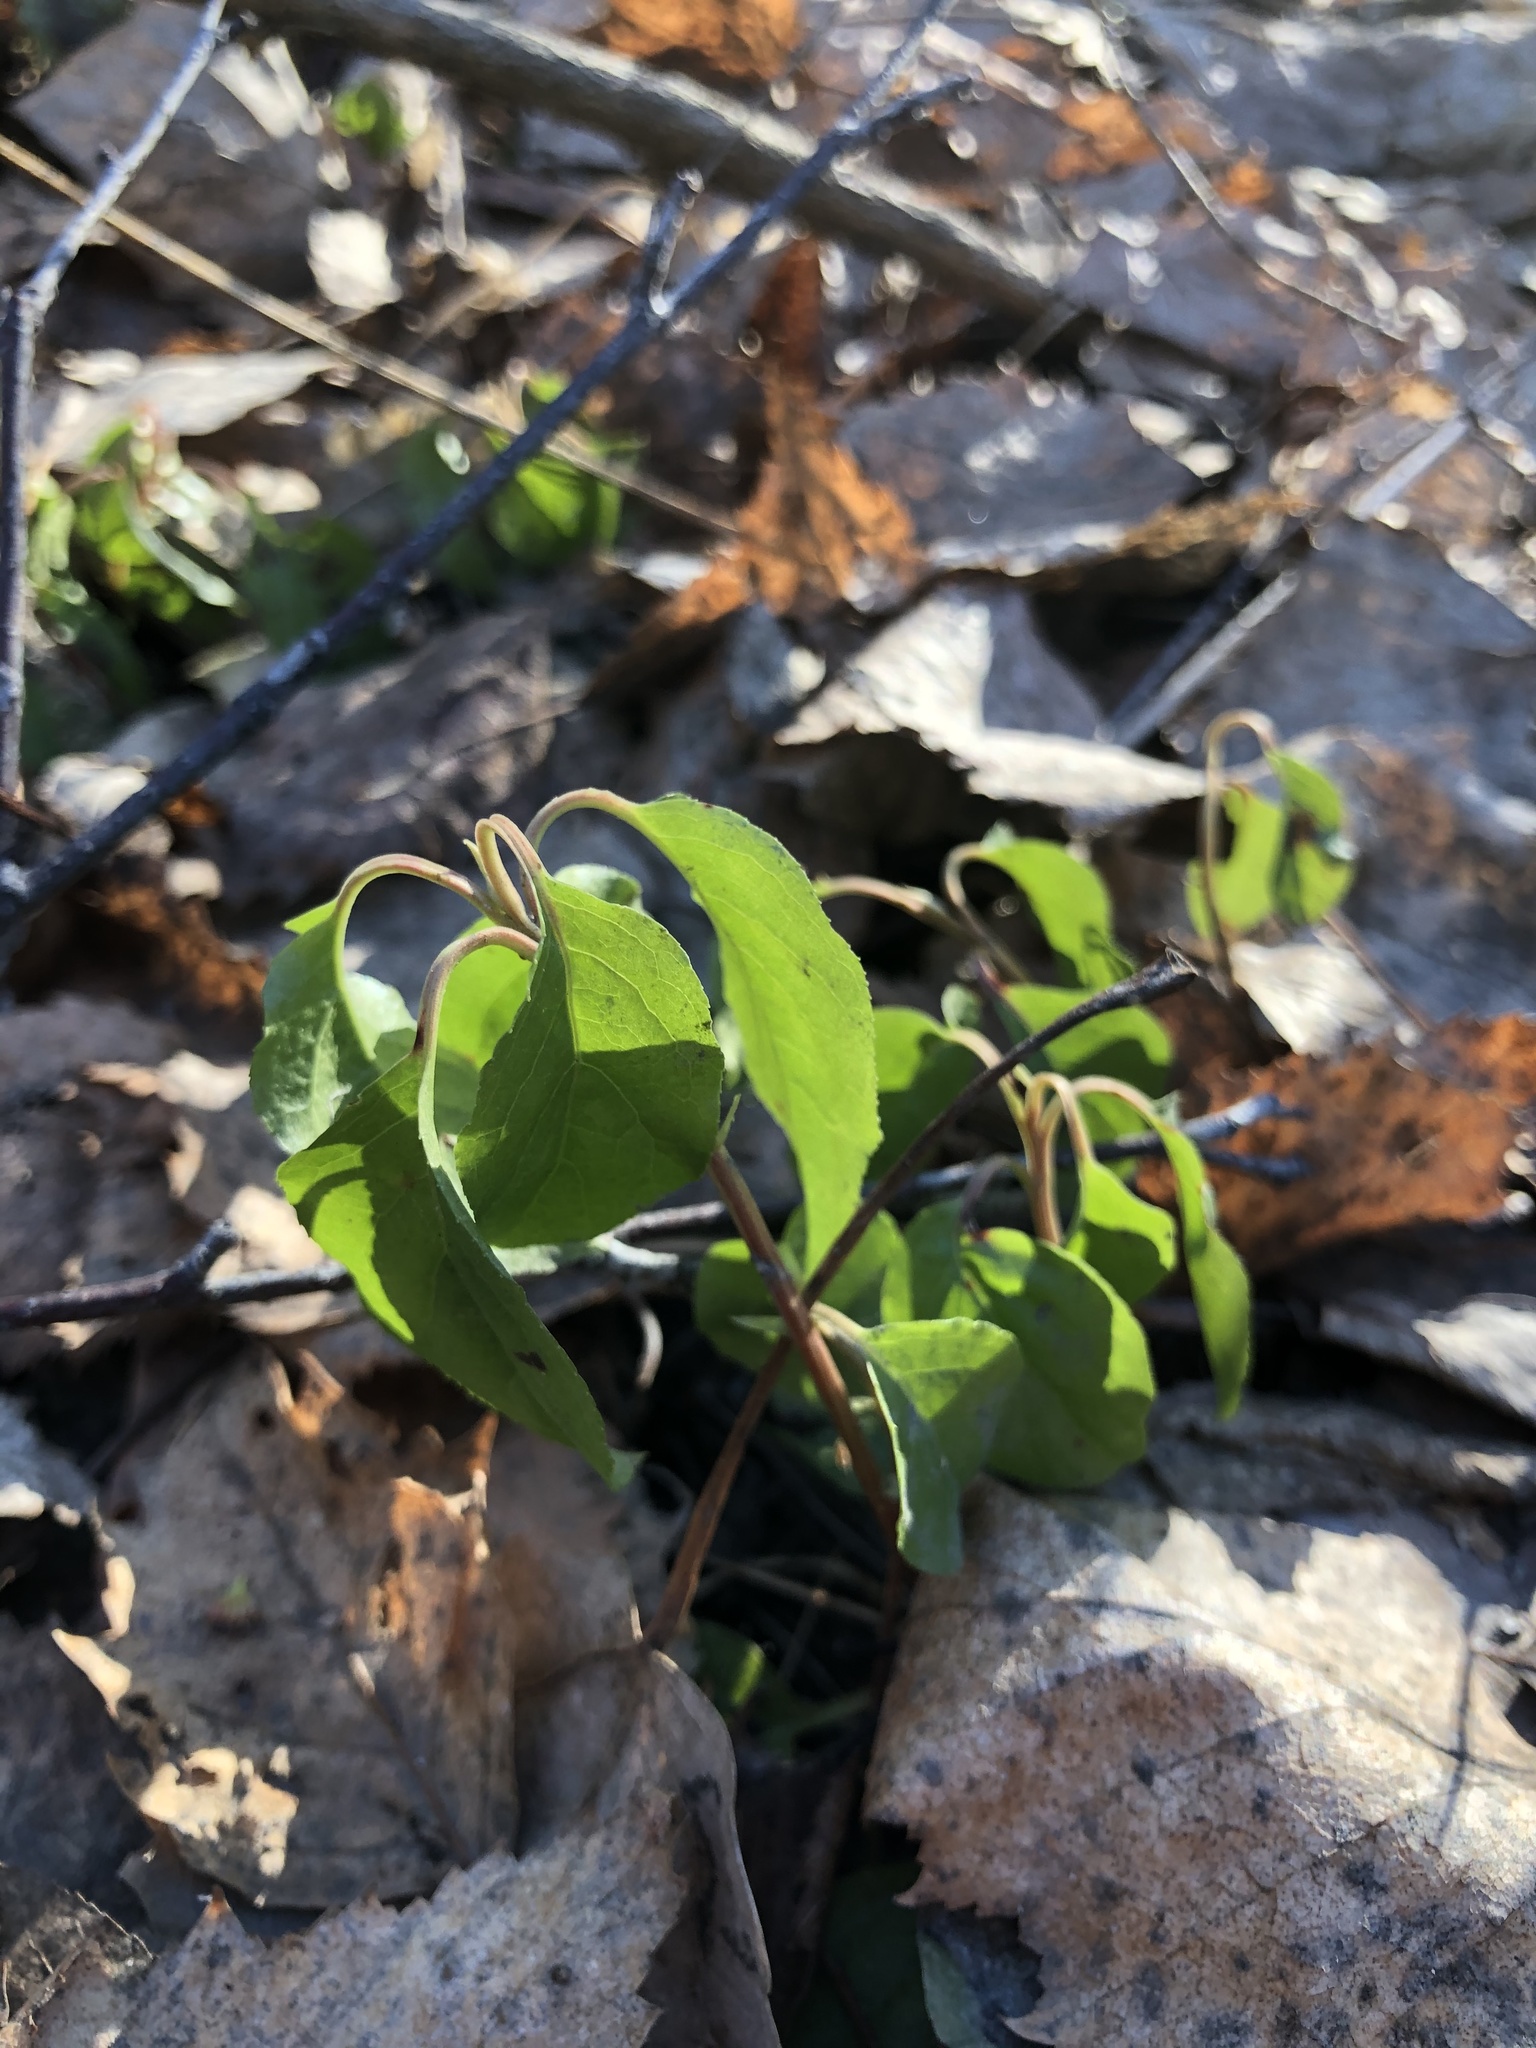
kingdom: Plantae
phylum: Tracheophyta
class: Magnoliopsida
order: Ericales
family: Ericaceae
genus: Orthilia
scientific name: Orthilia secunda
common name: One-sided orthilia
